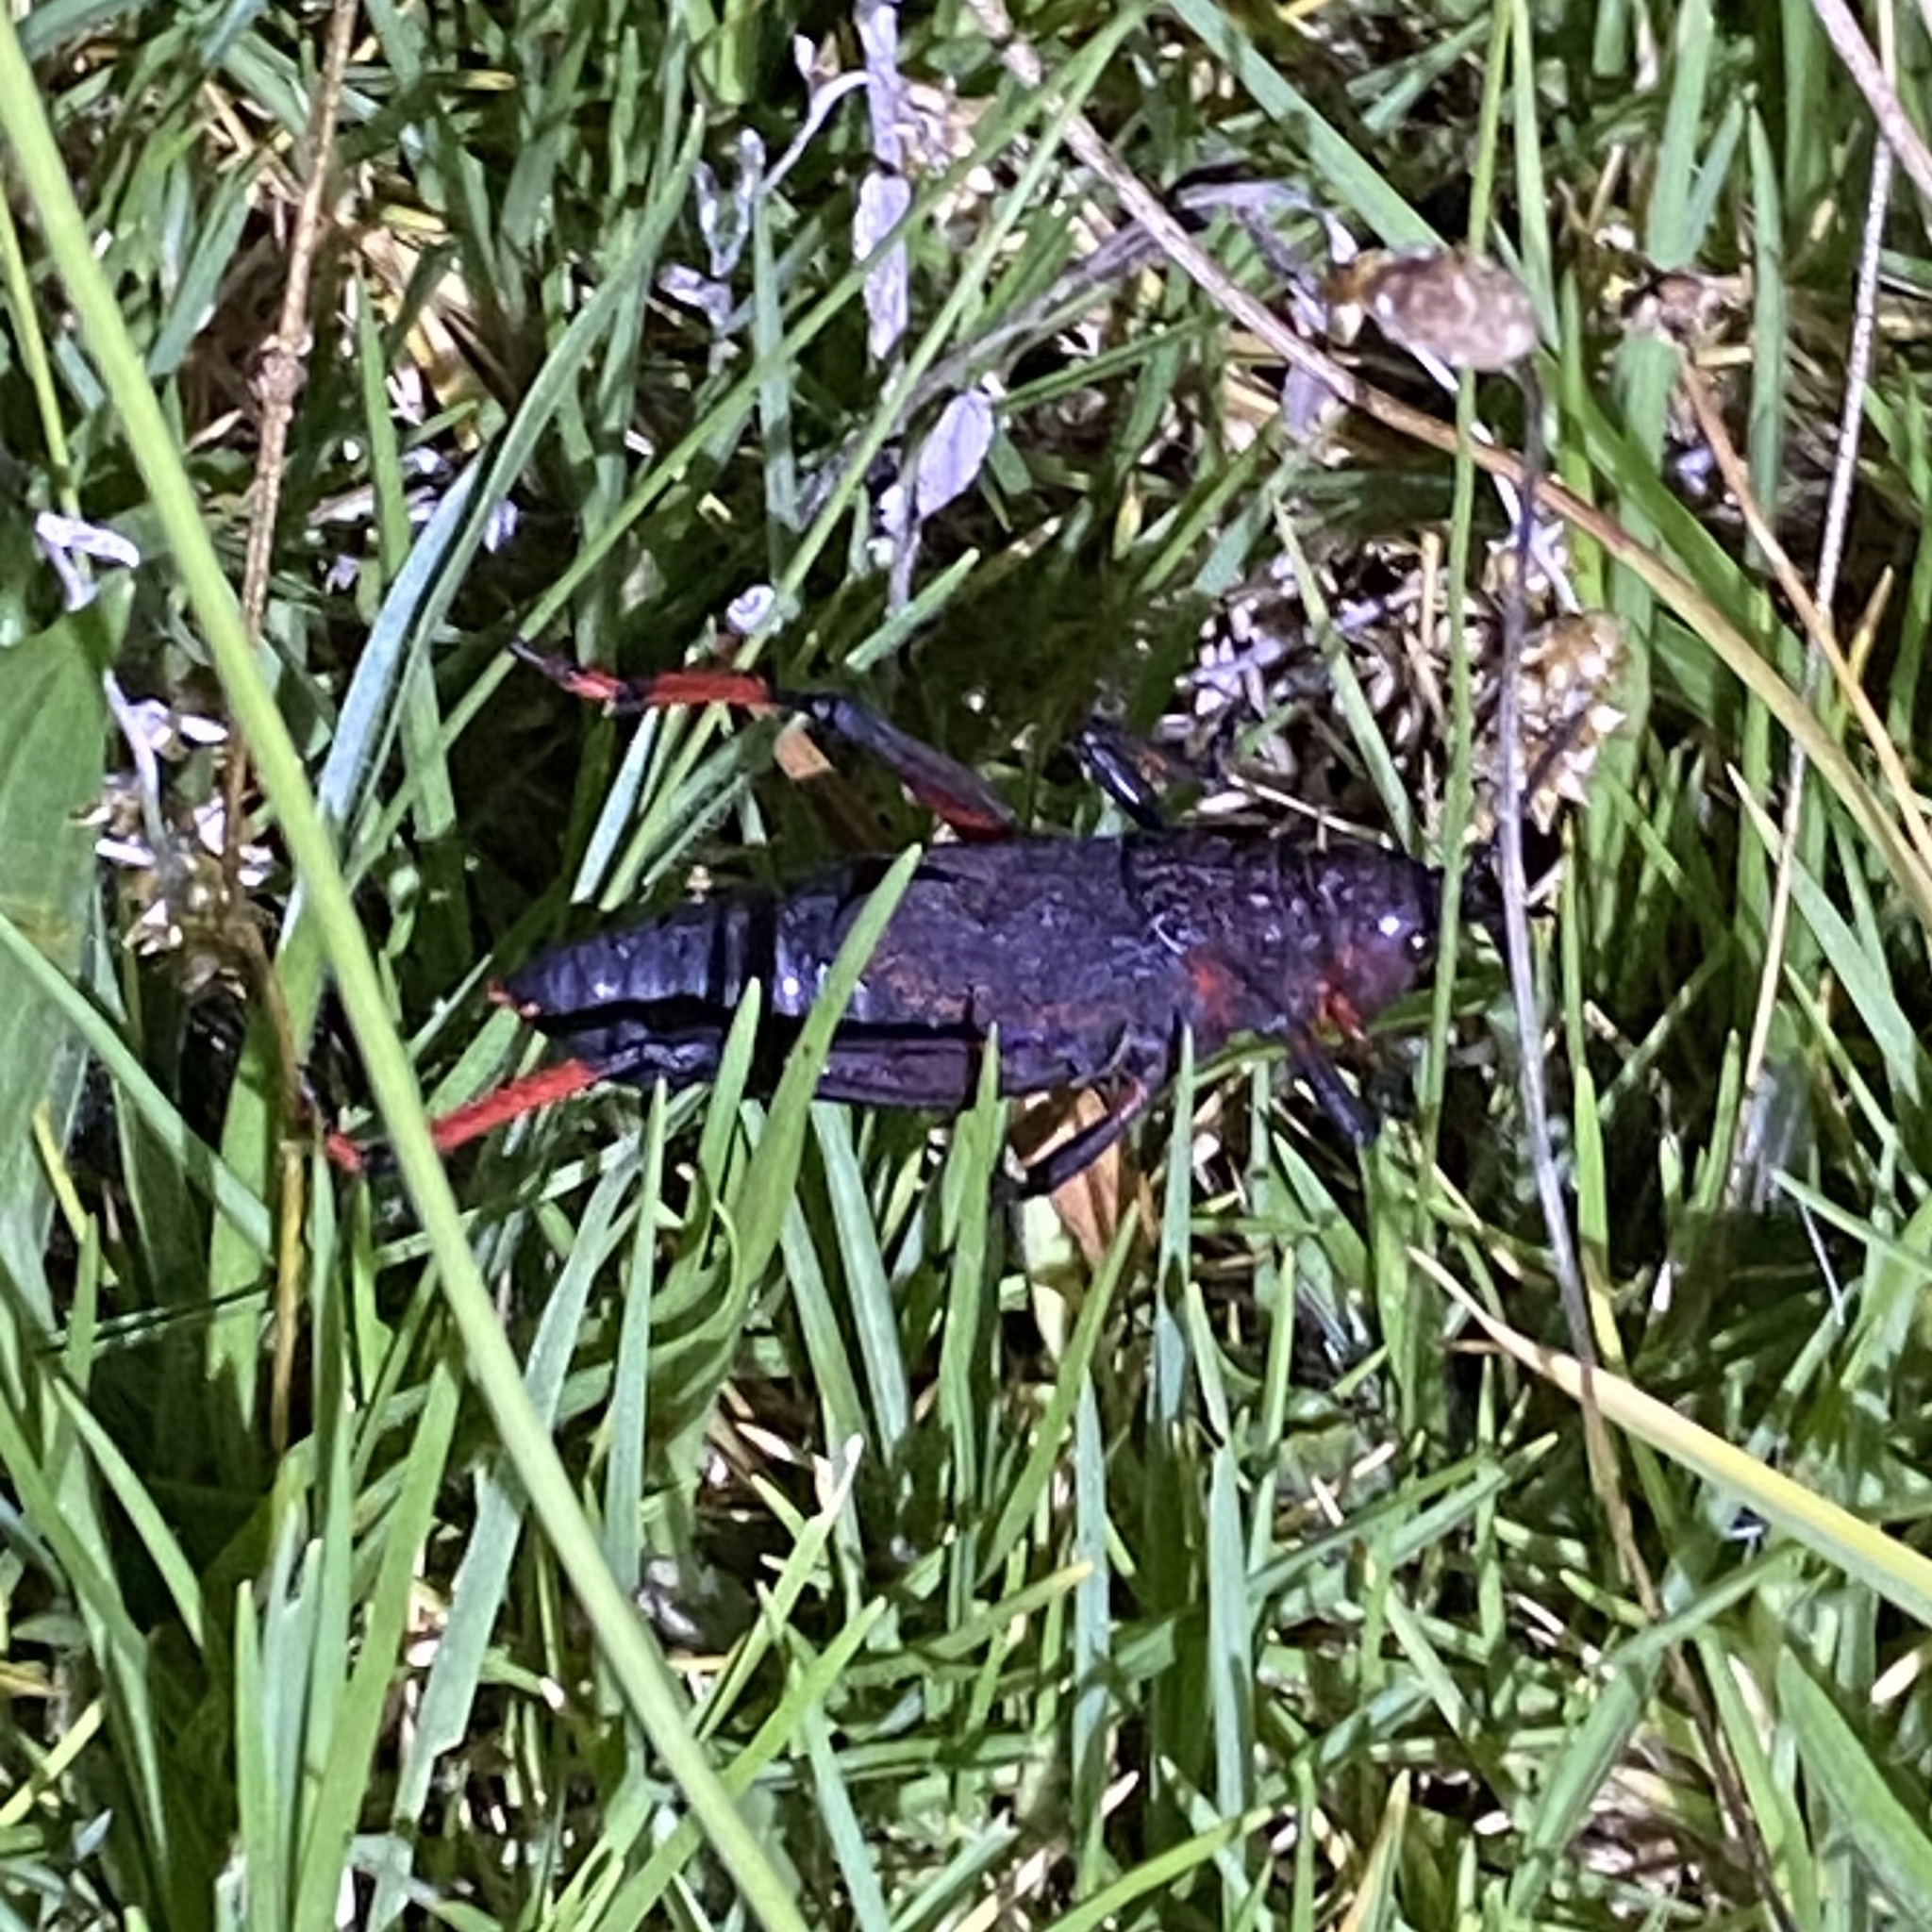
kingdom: Animalia
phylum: Arthropoda
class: Insecta
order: Orthoptera
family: Pyrgomorphidae
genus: Dictyophorus
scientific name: Dictyophorus spumans
